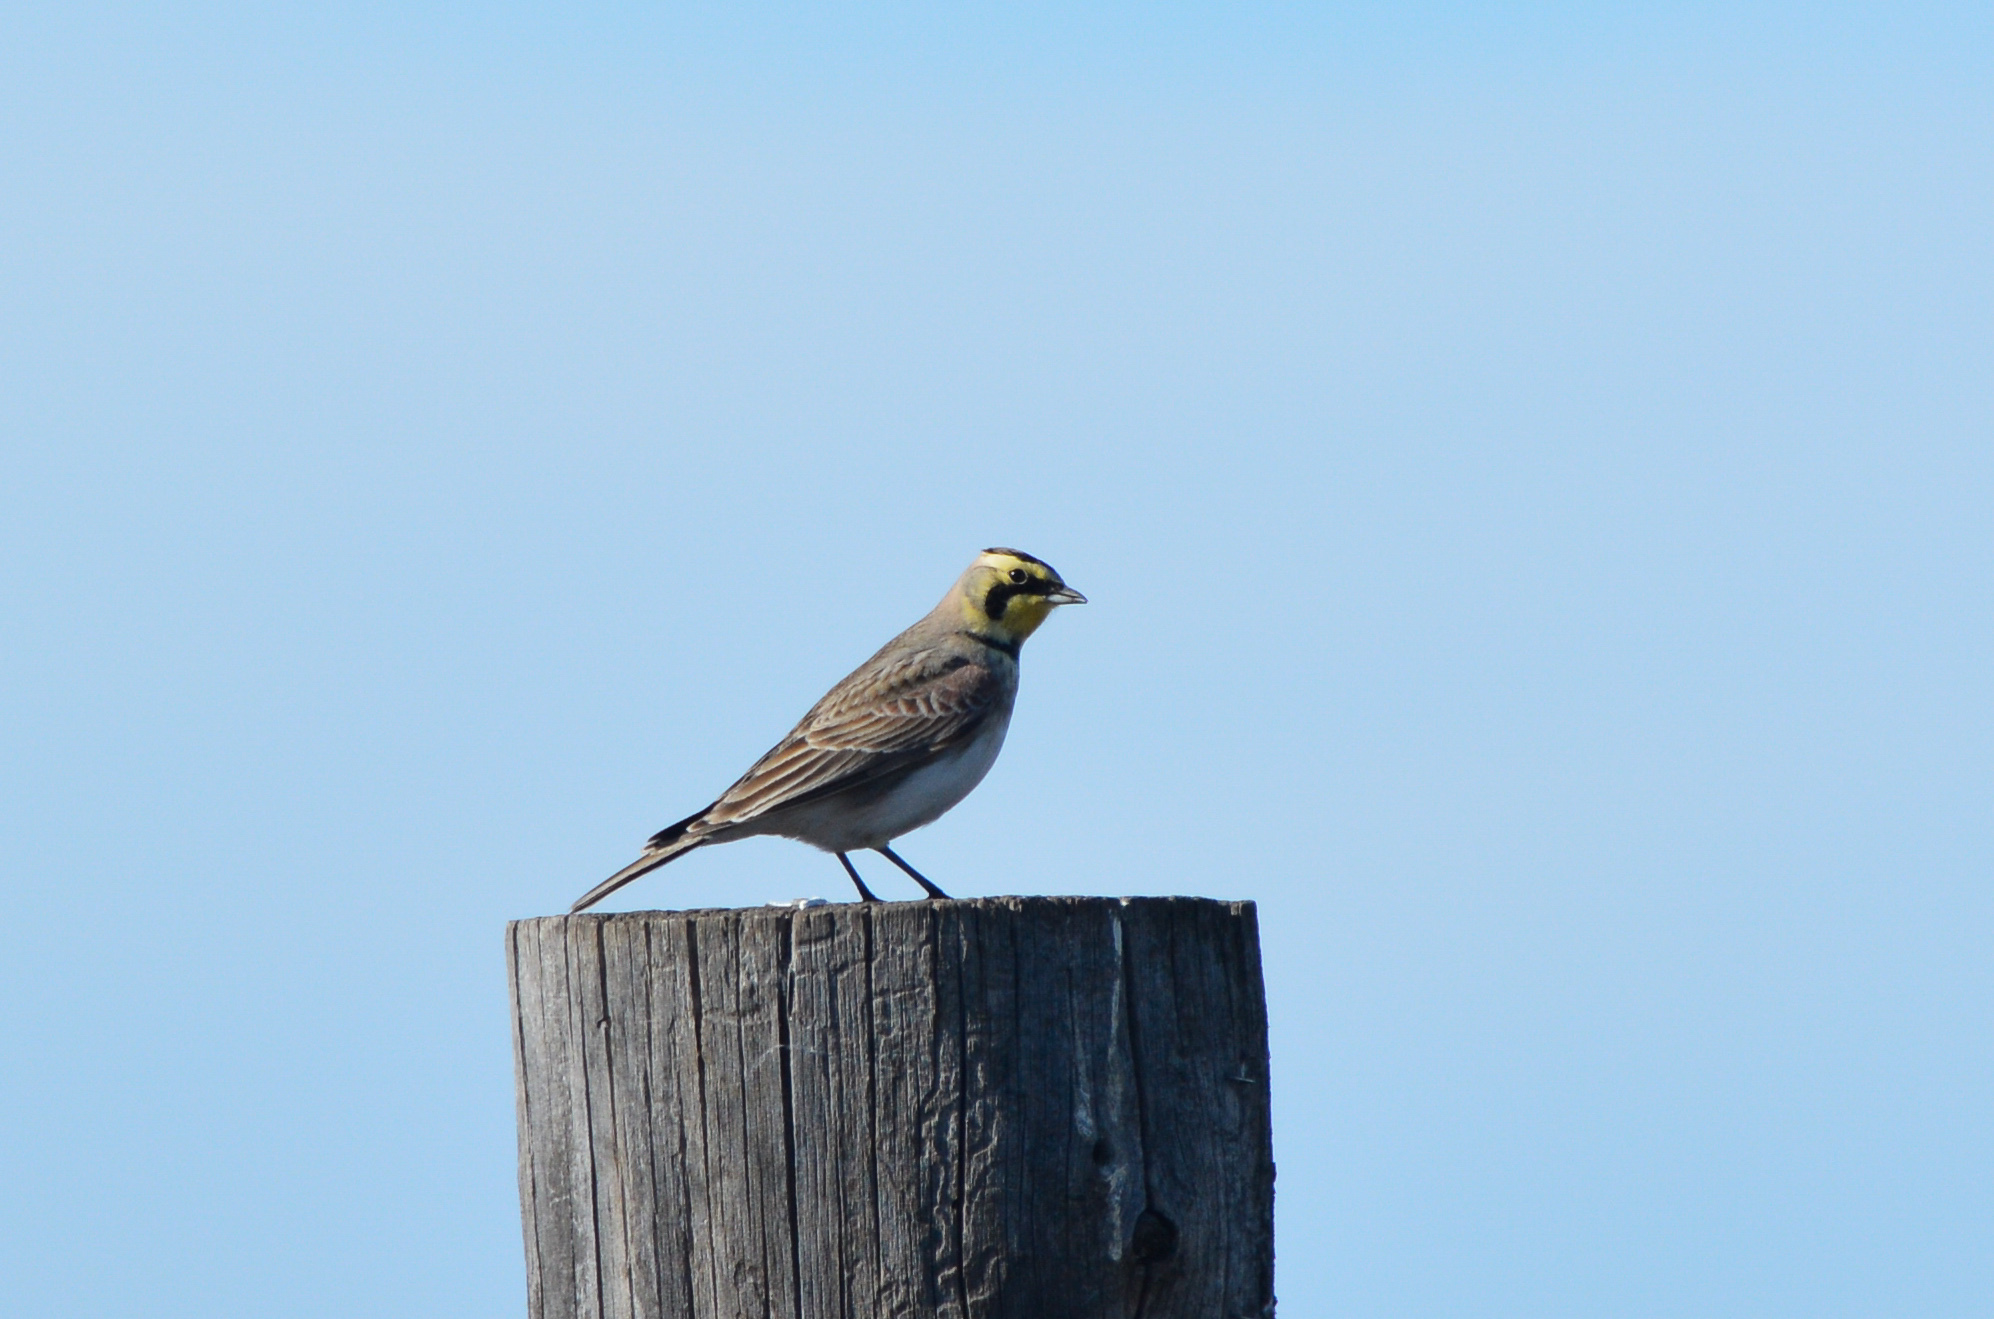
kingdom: Animalia
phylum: Chordata
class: Aves
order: Passeriformes
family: Alaudidae
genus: Eremophila
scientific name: Eremophila alpestris
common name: Horned lark
